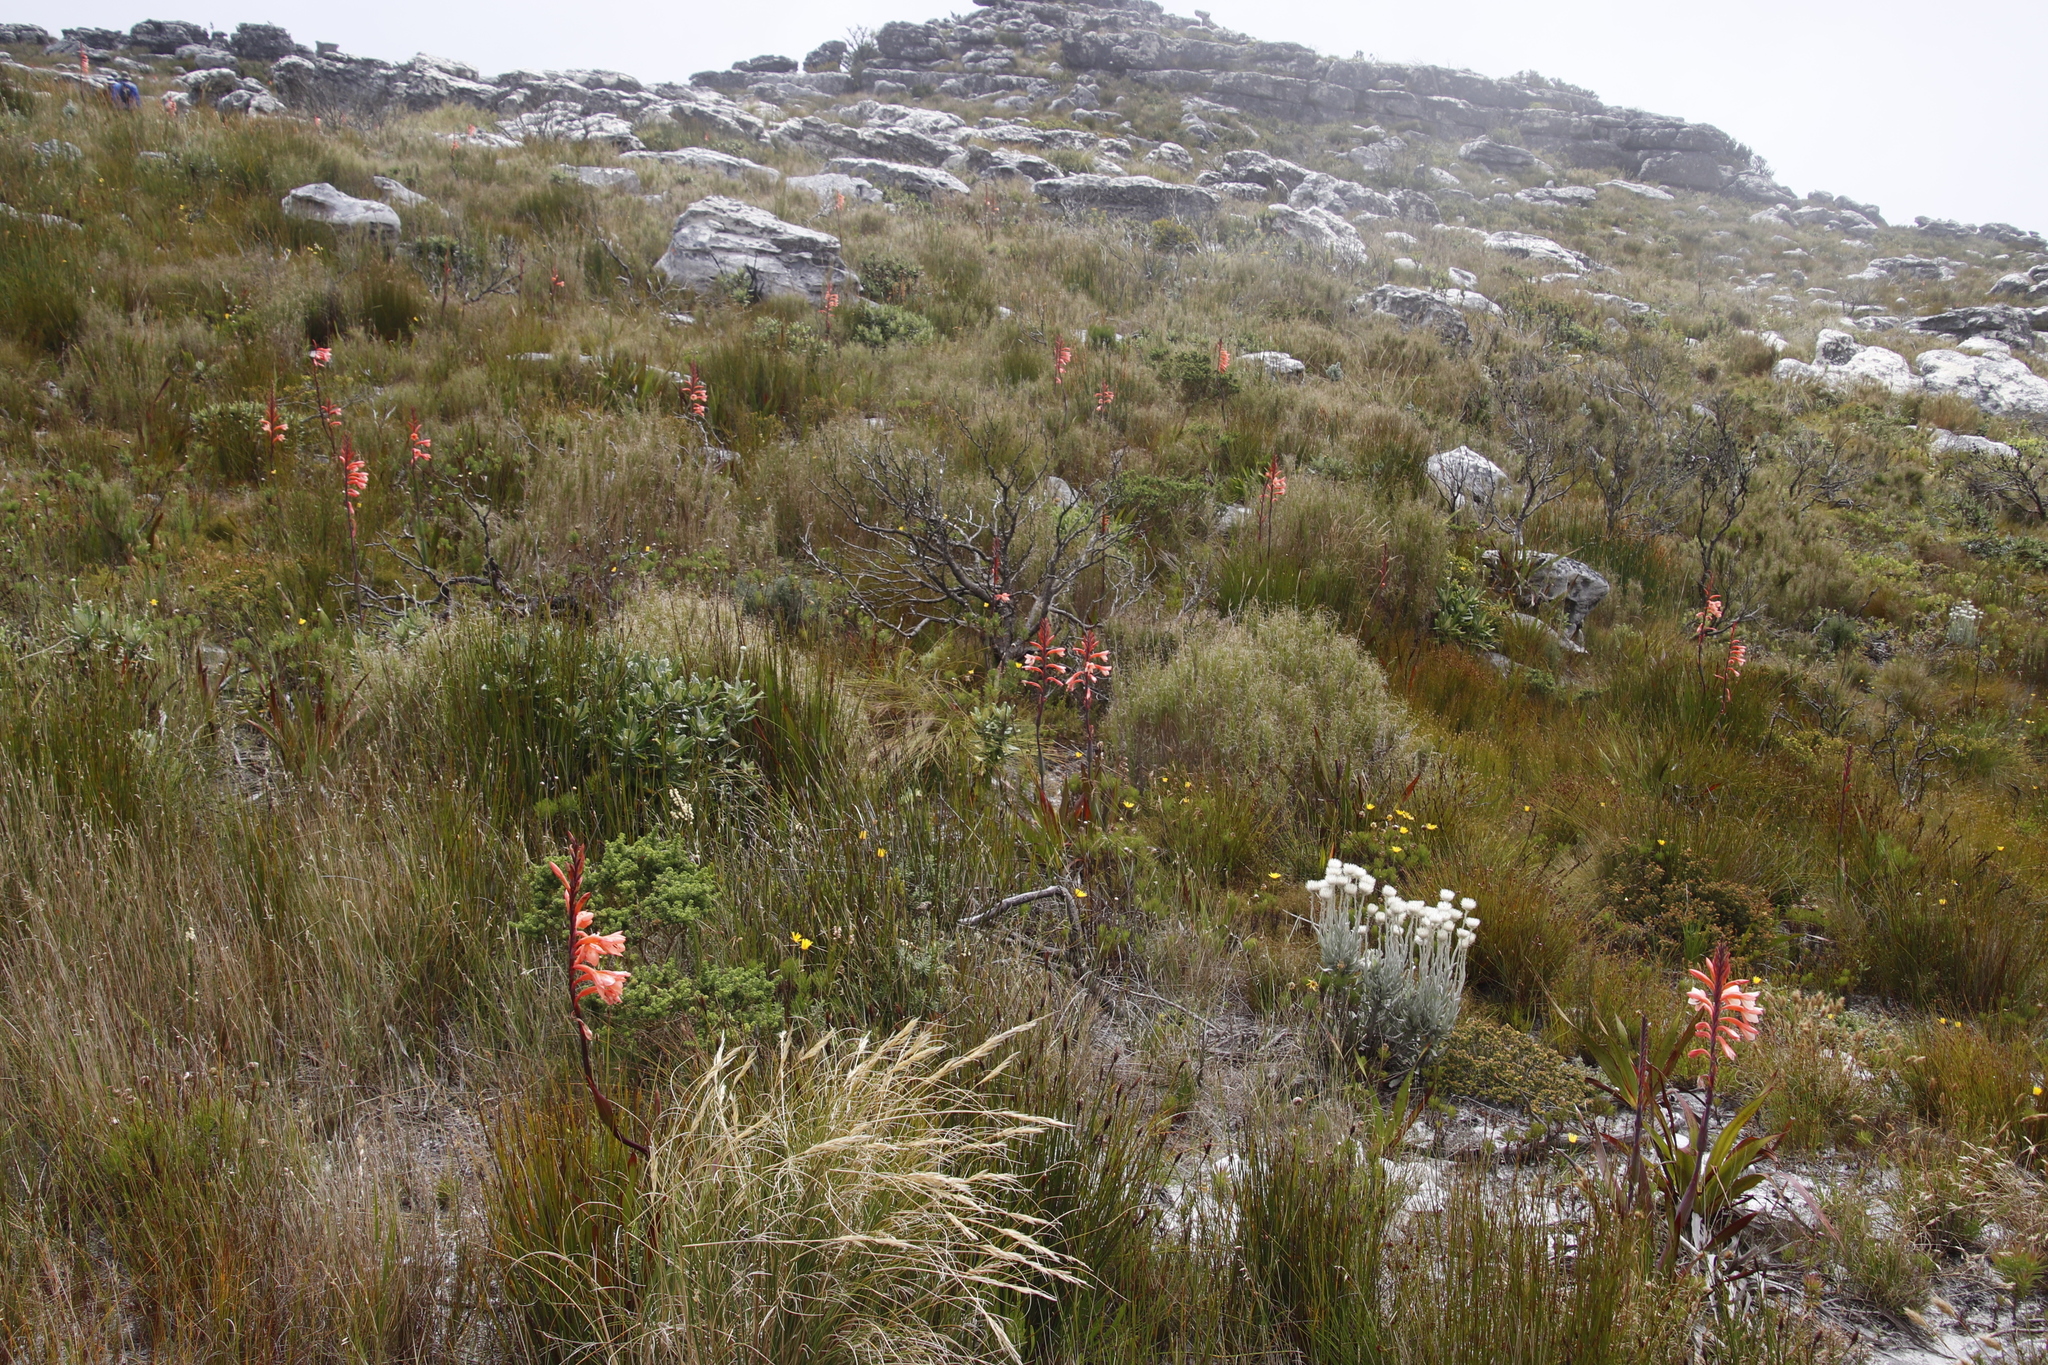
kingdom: Plantae
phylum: Tracheophyta
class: Liliopsida
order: Asparagales
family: Iridaceae
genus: Watsonia
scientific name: Watsonia tabularis
